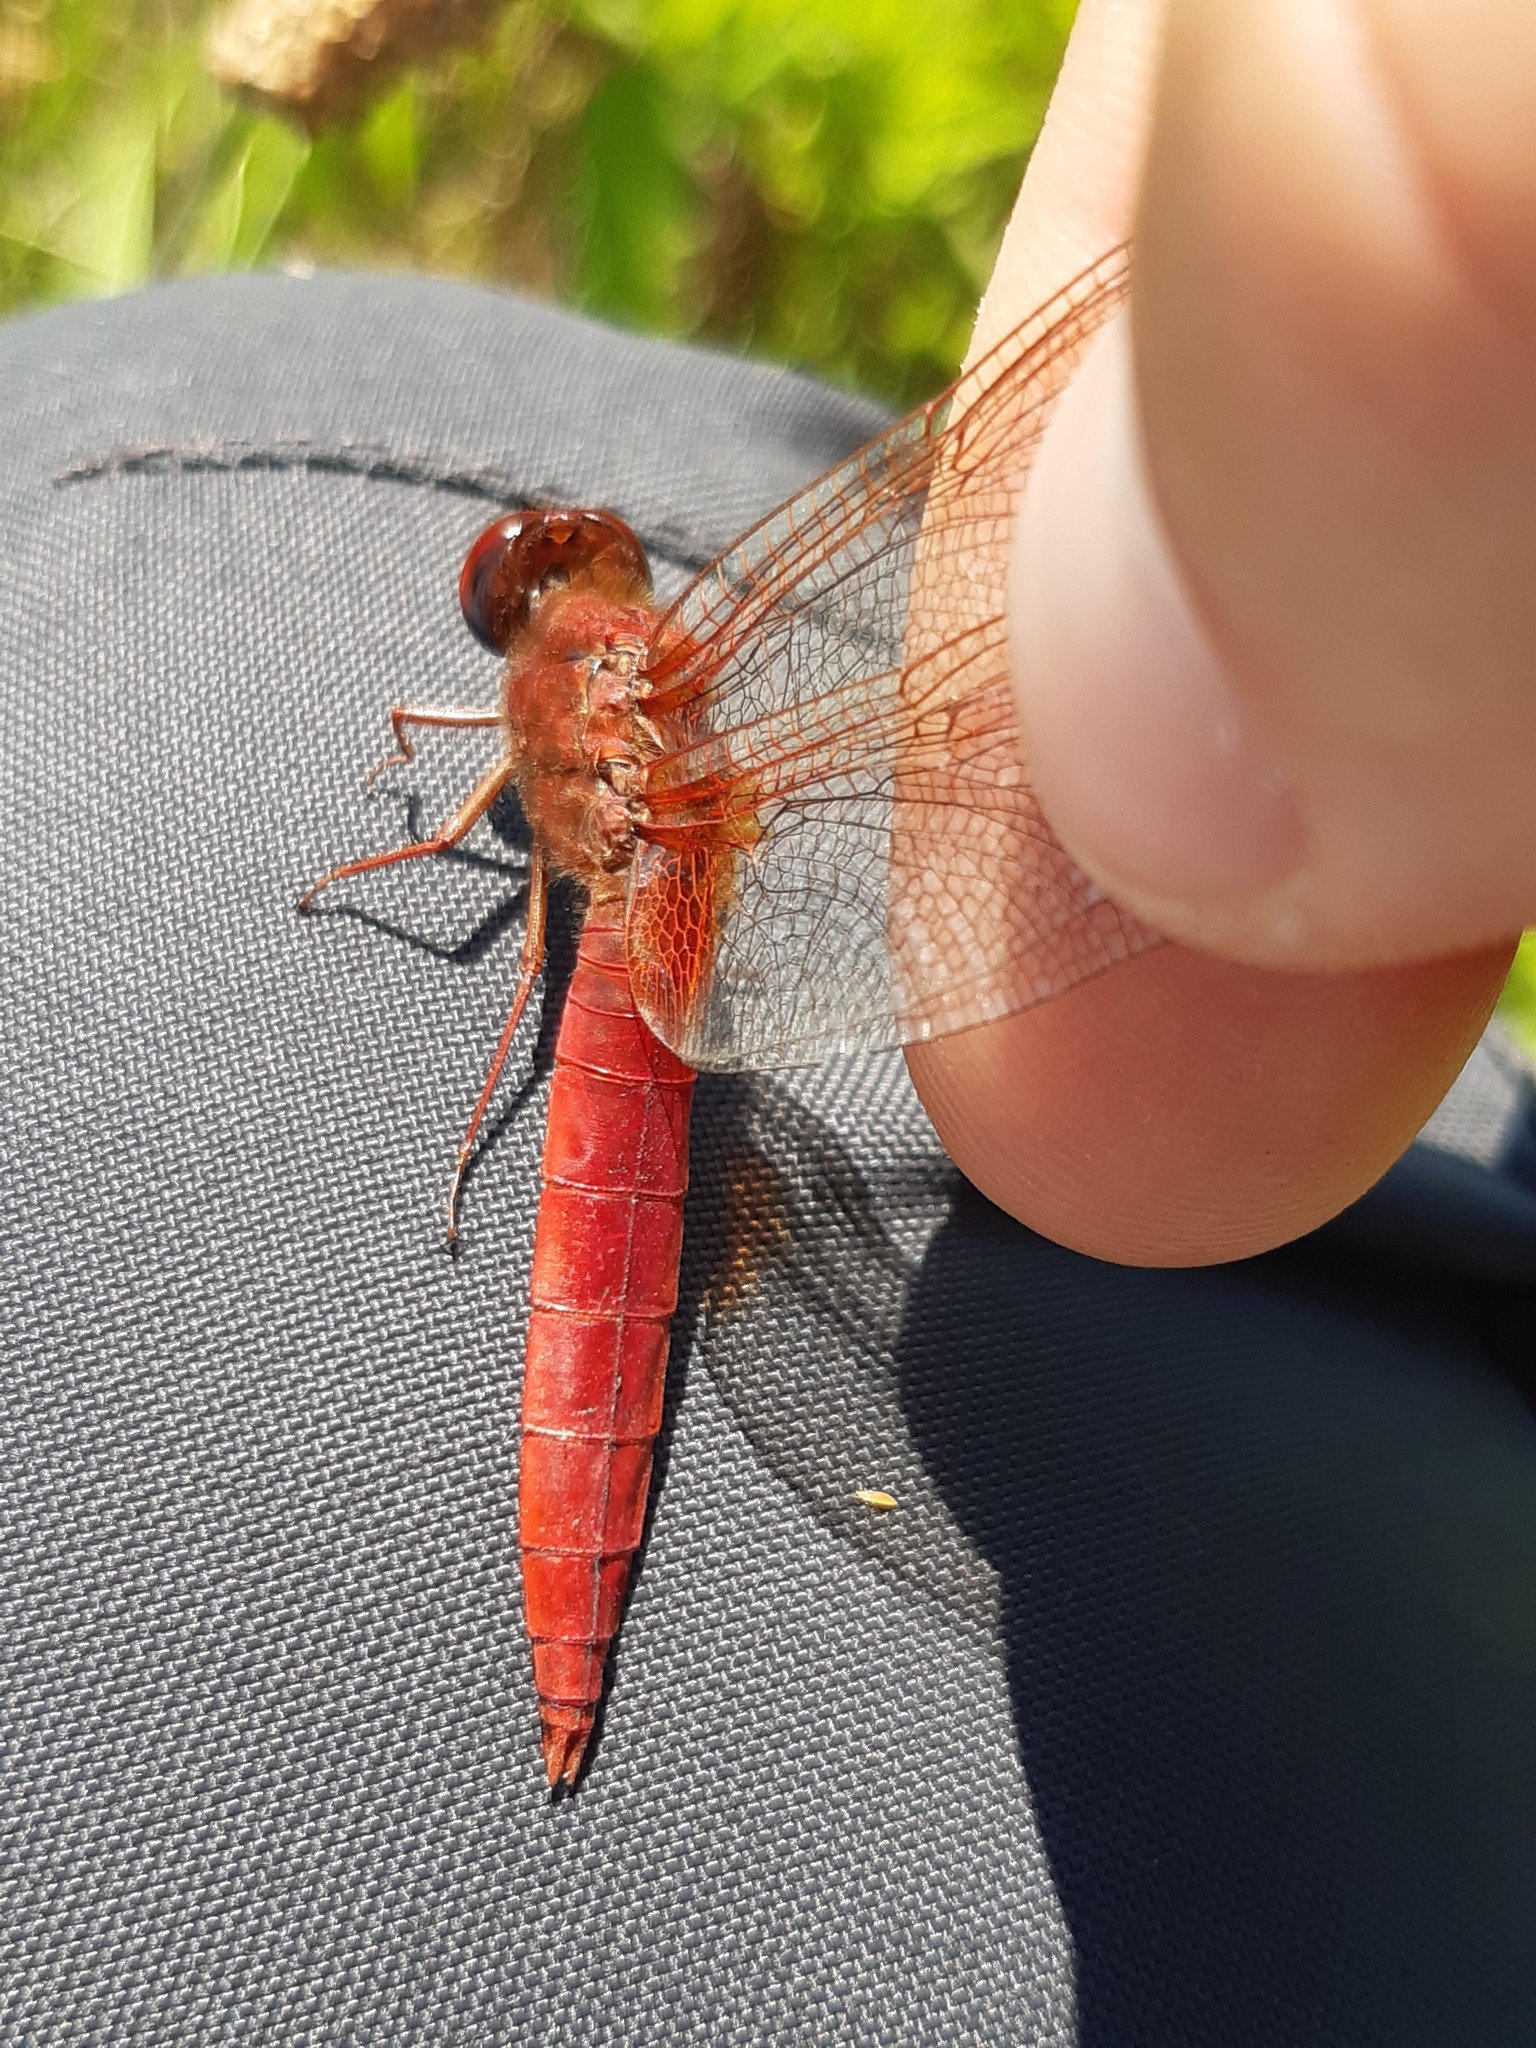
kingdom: Animalia
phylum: Arthropoda
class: Insecta
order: Odonata
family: Libellulidae
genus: Crocothemis
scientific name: Crocothemis erythraea
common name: Scarlet dragonfly
